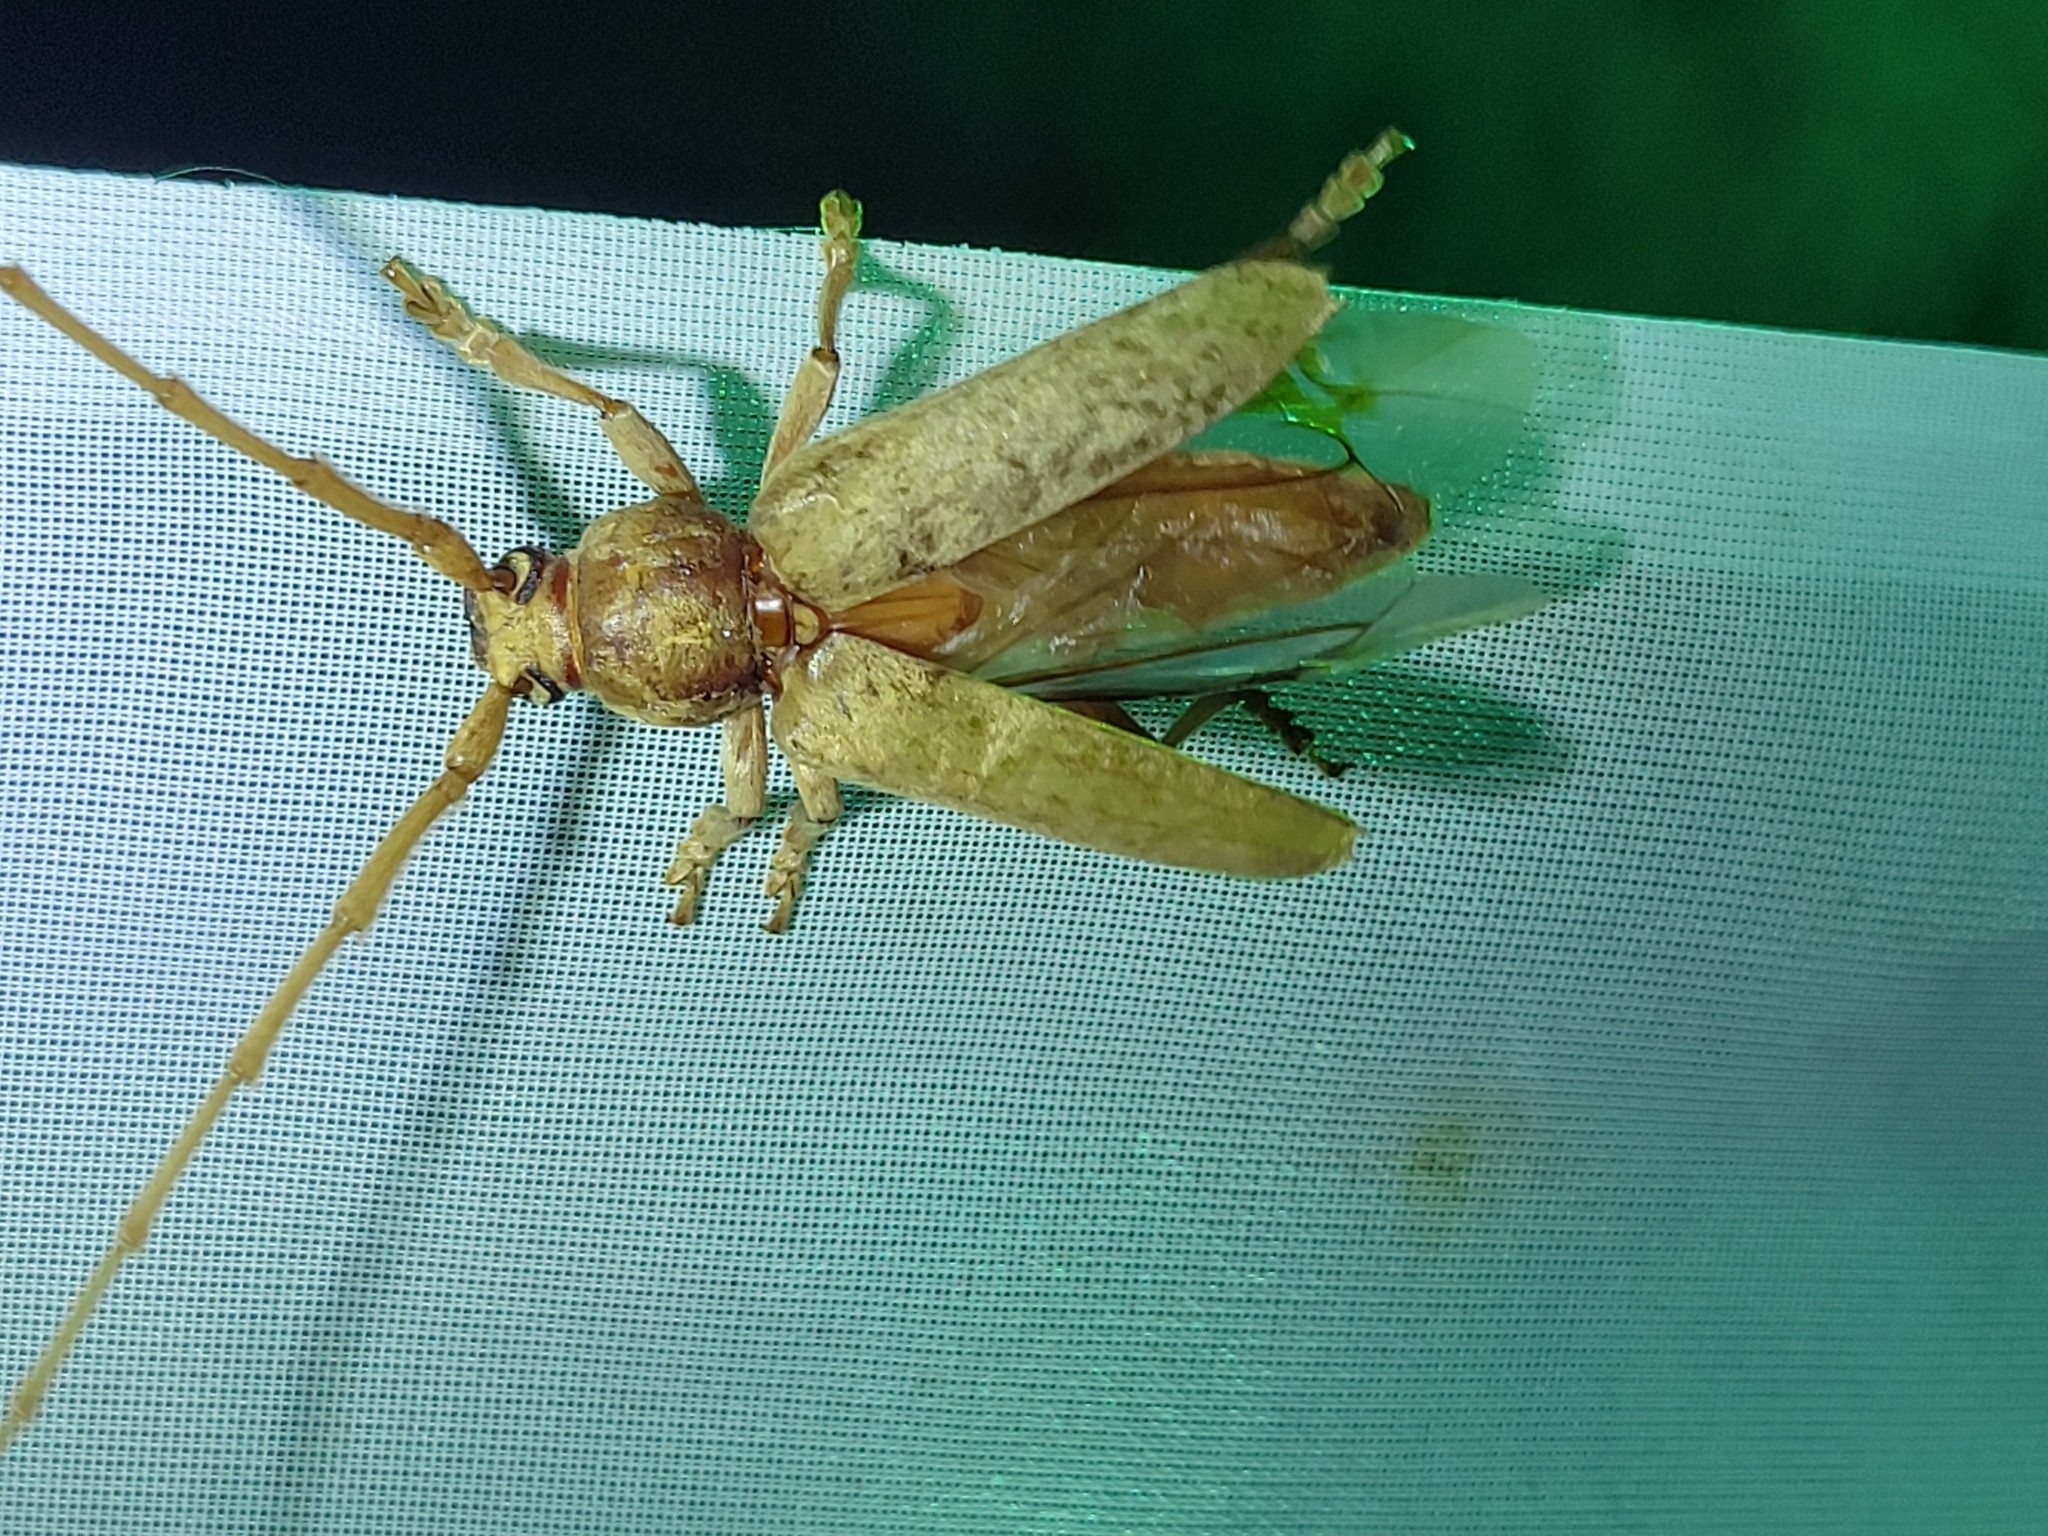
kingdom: Animalia
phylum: Arthropoda
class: Insecta
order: Coleoptera
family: Cerambycidae
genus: Enaphalodes
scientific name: Enaphalodes rufulus
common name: Red oak borer
